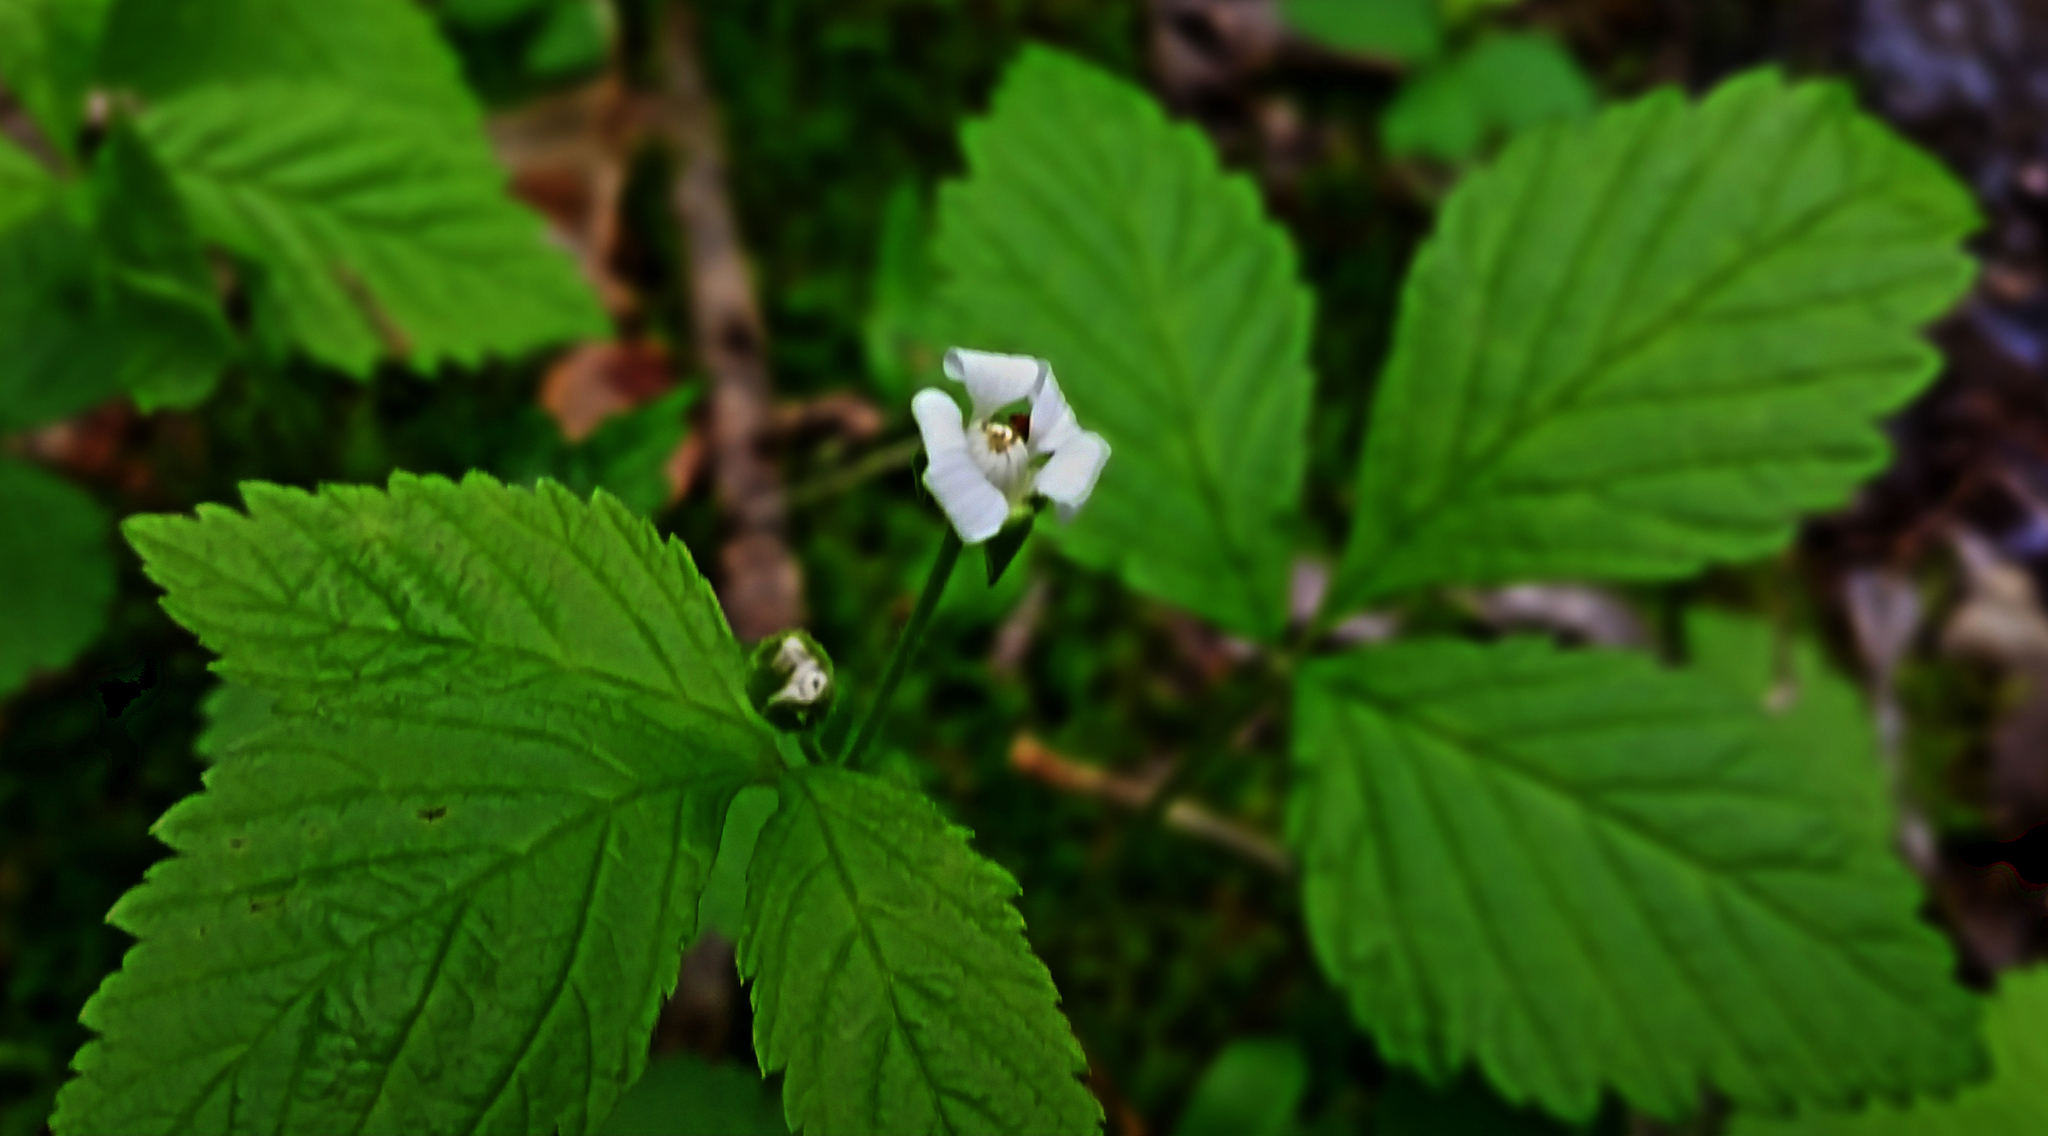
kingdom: Plantae
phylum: Tracheophyta
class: Magnoliopsida
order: Rosales
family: Rosaceae
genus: Rubus
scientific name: Rubus pubescens
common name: Dwarf raspberry
